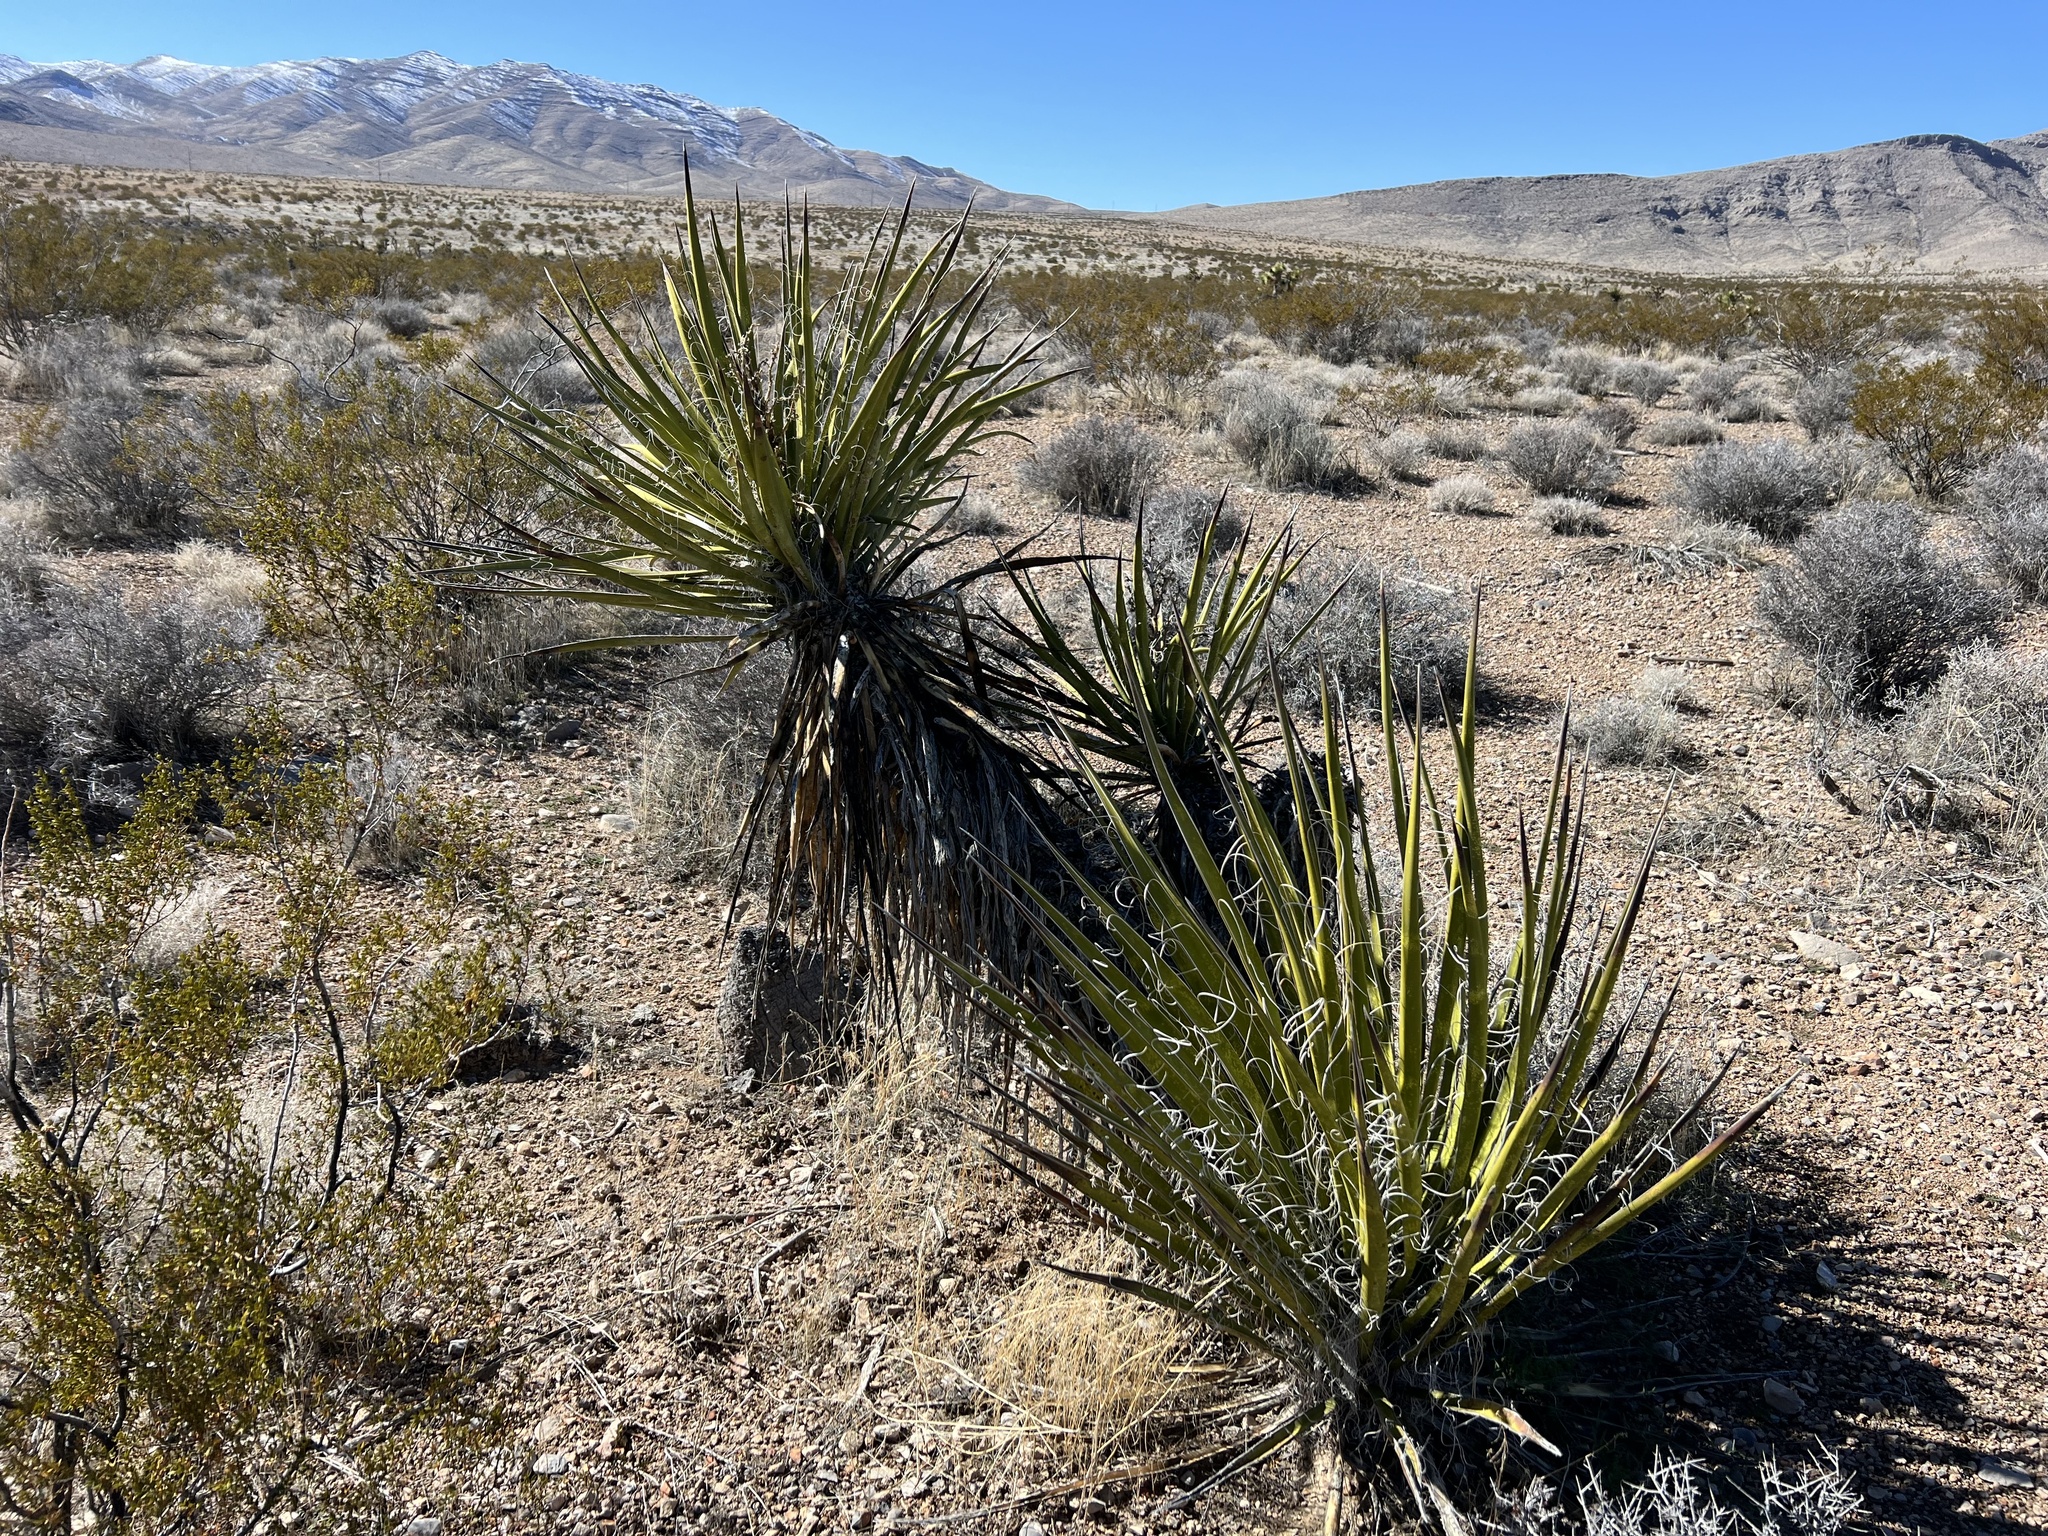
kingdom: Plantae
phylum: Tracheophyta
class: Liliopsida
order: Asparagales
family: Asparagaceae
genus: Yucca
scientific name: Yucca schidigera
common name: Mojave yucca
